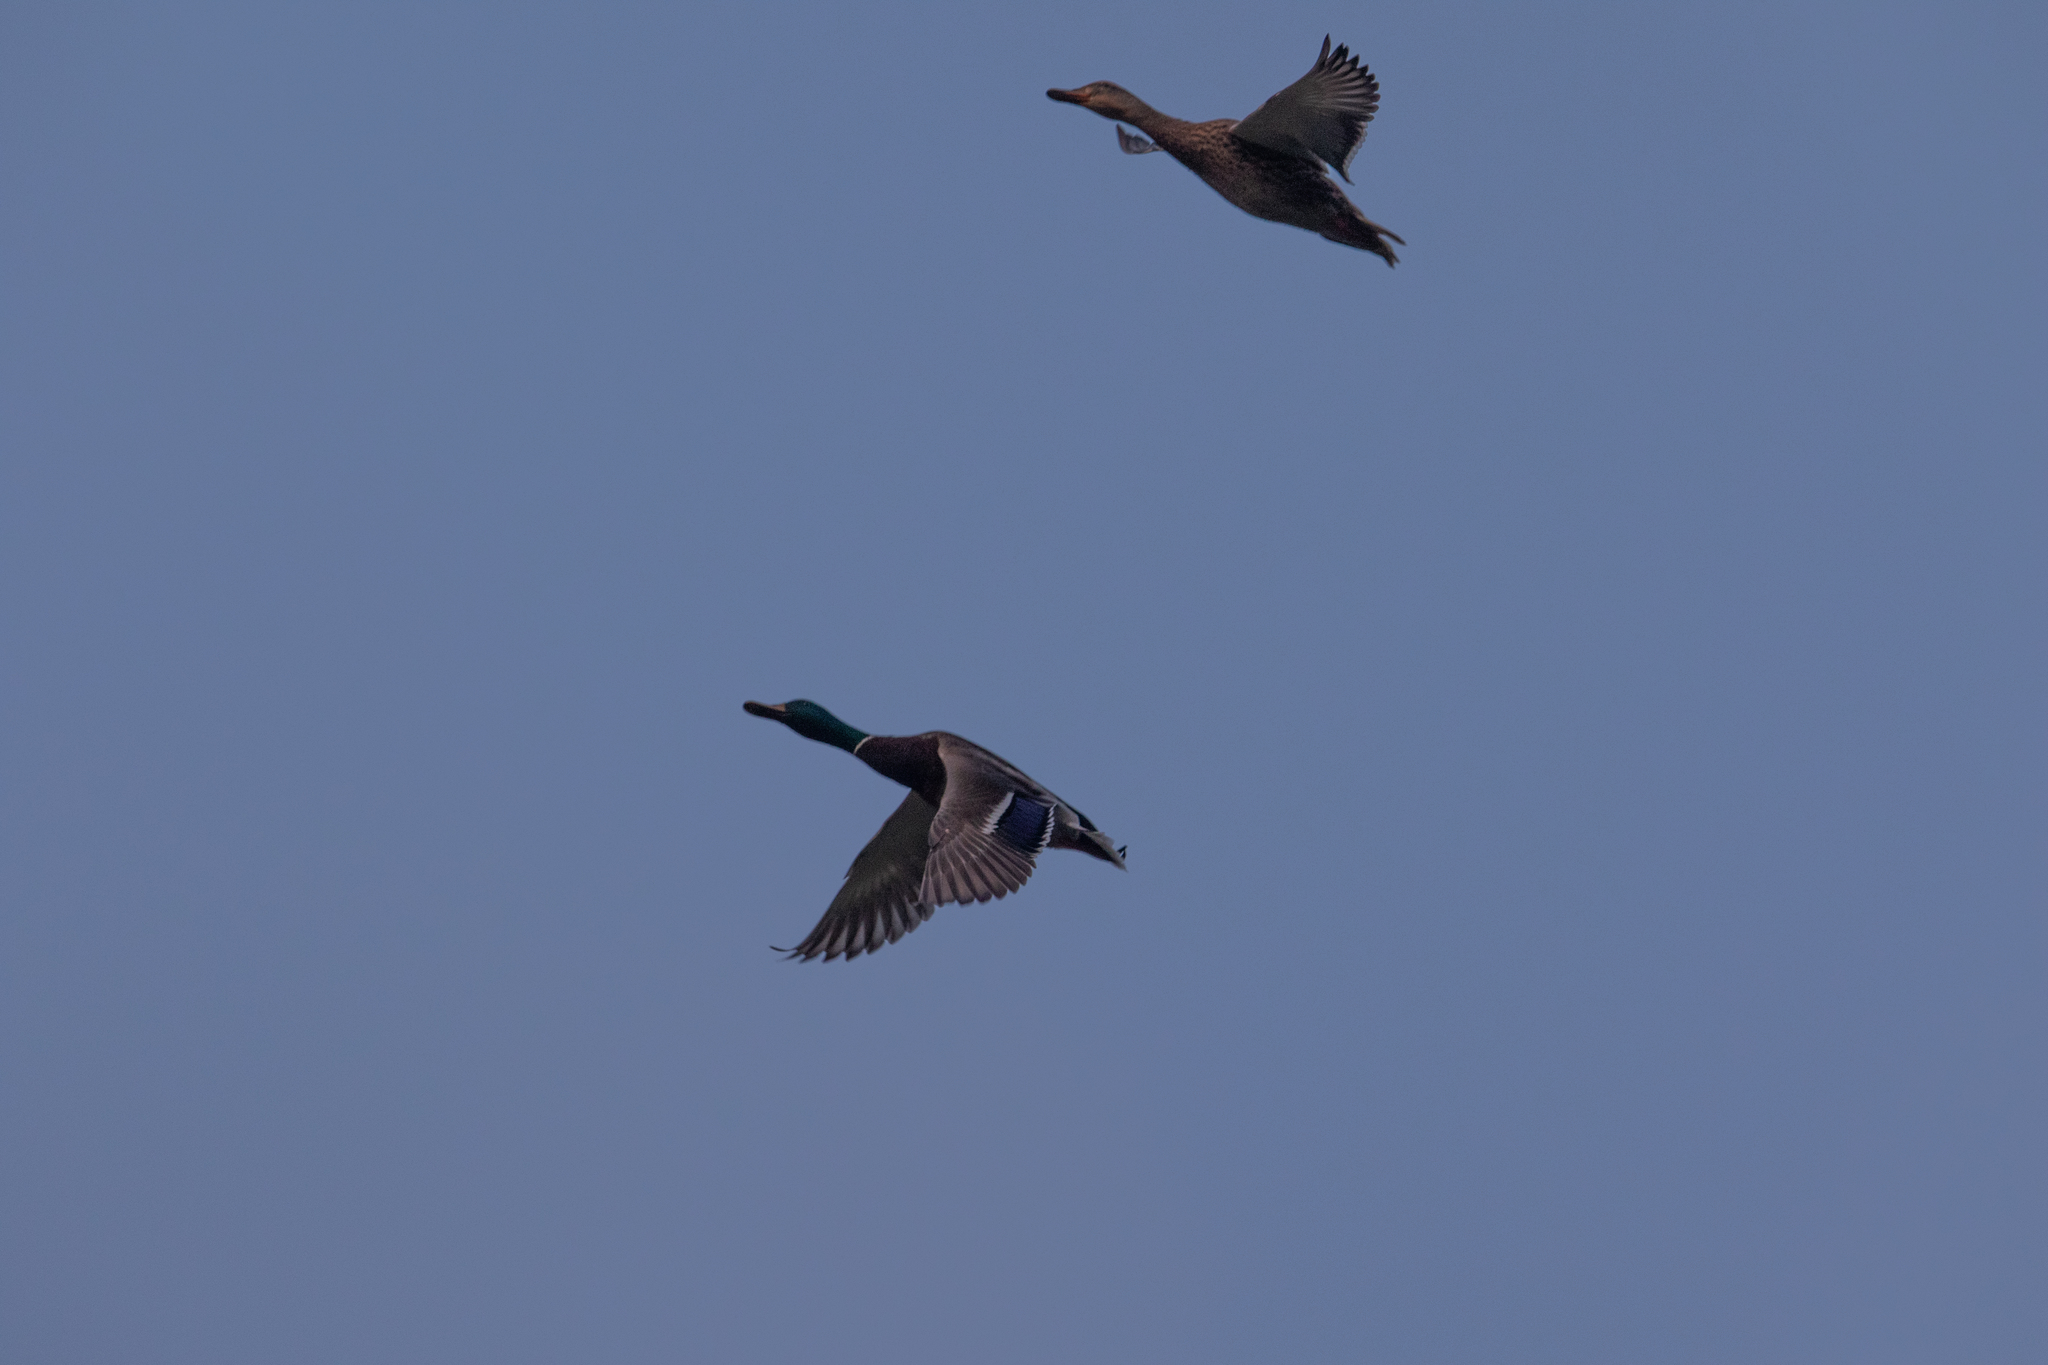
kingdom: Animalia
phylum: Chordata
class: Aves
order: Anseriformes
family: Anatidae
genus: Anas
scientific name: Anas platyrhynchos
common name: Mallard
